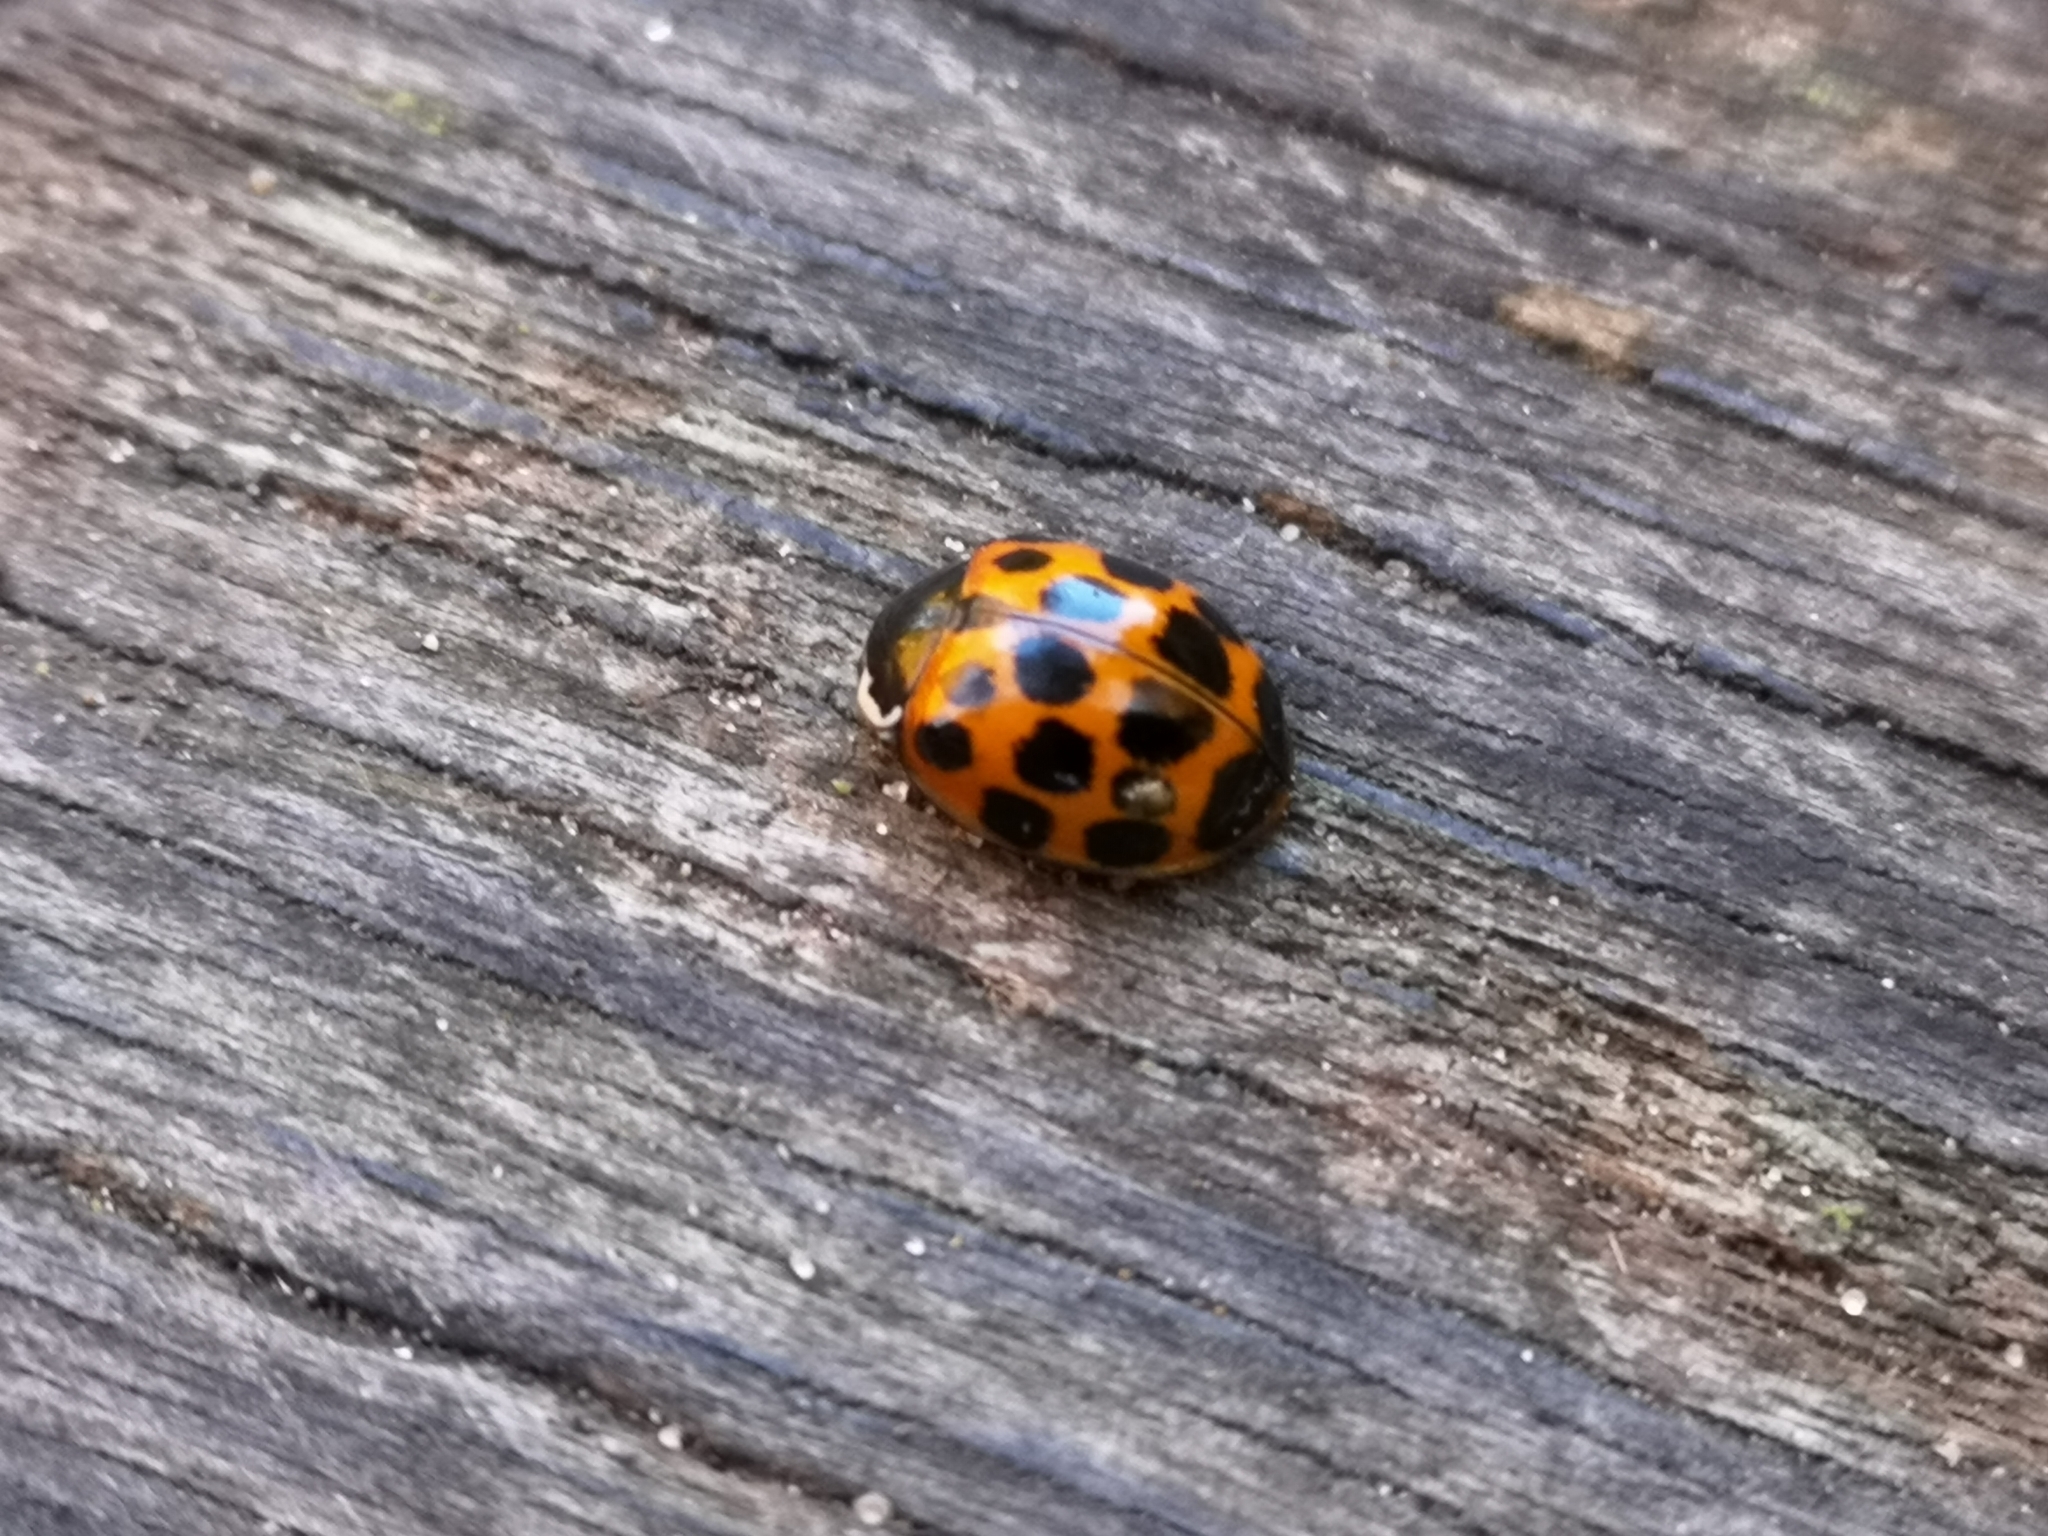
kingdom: Animalia
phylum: Arthropoda
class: Insecta
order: Coleoptera
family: Coccinellidae
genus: Harmonia
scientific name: Harmonia axyridis
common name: Harlequin ladybird
